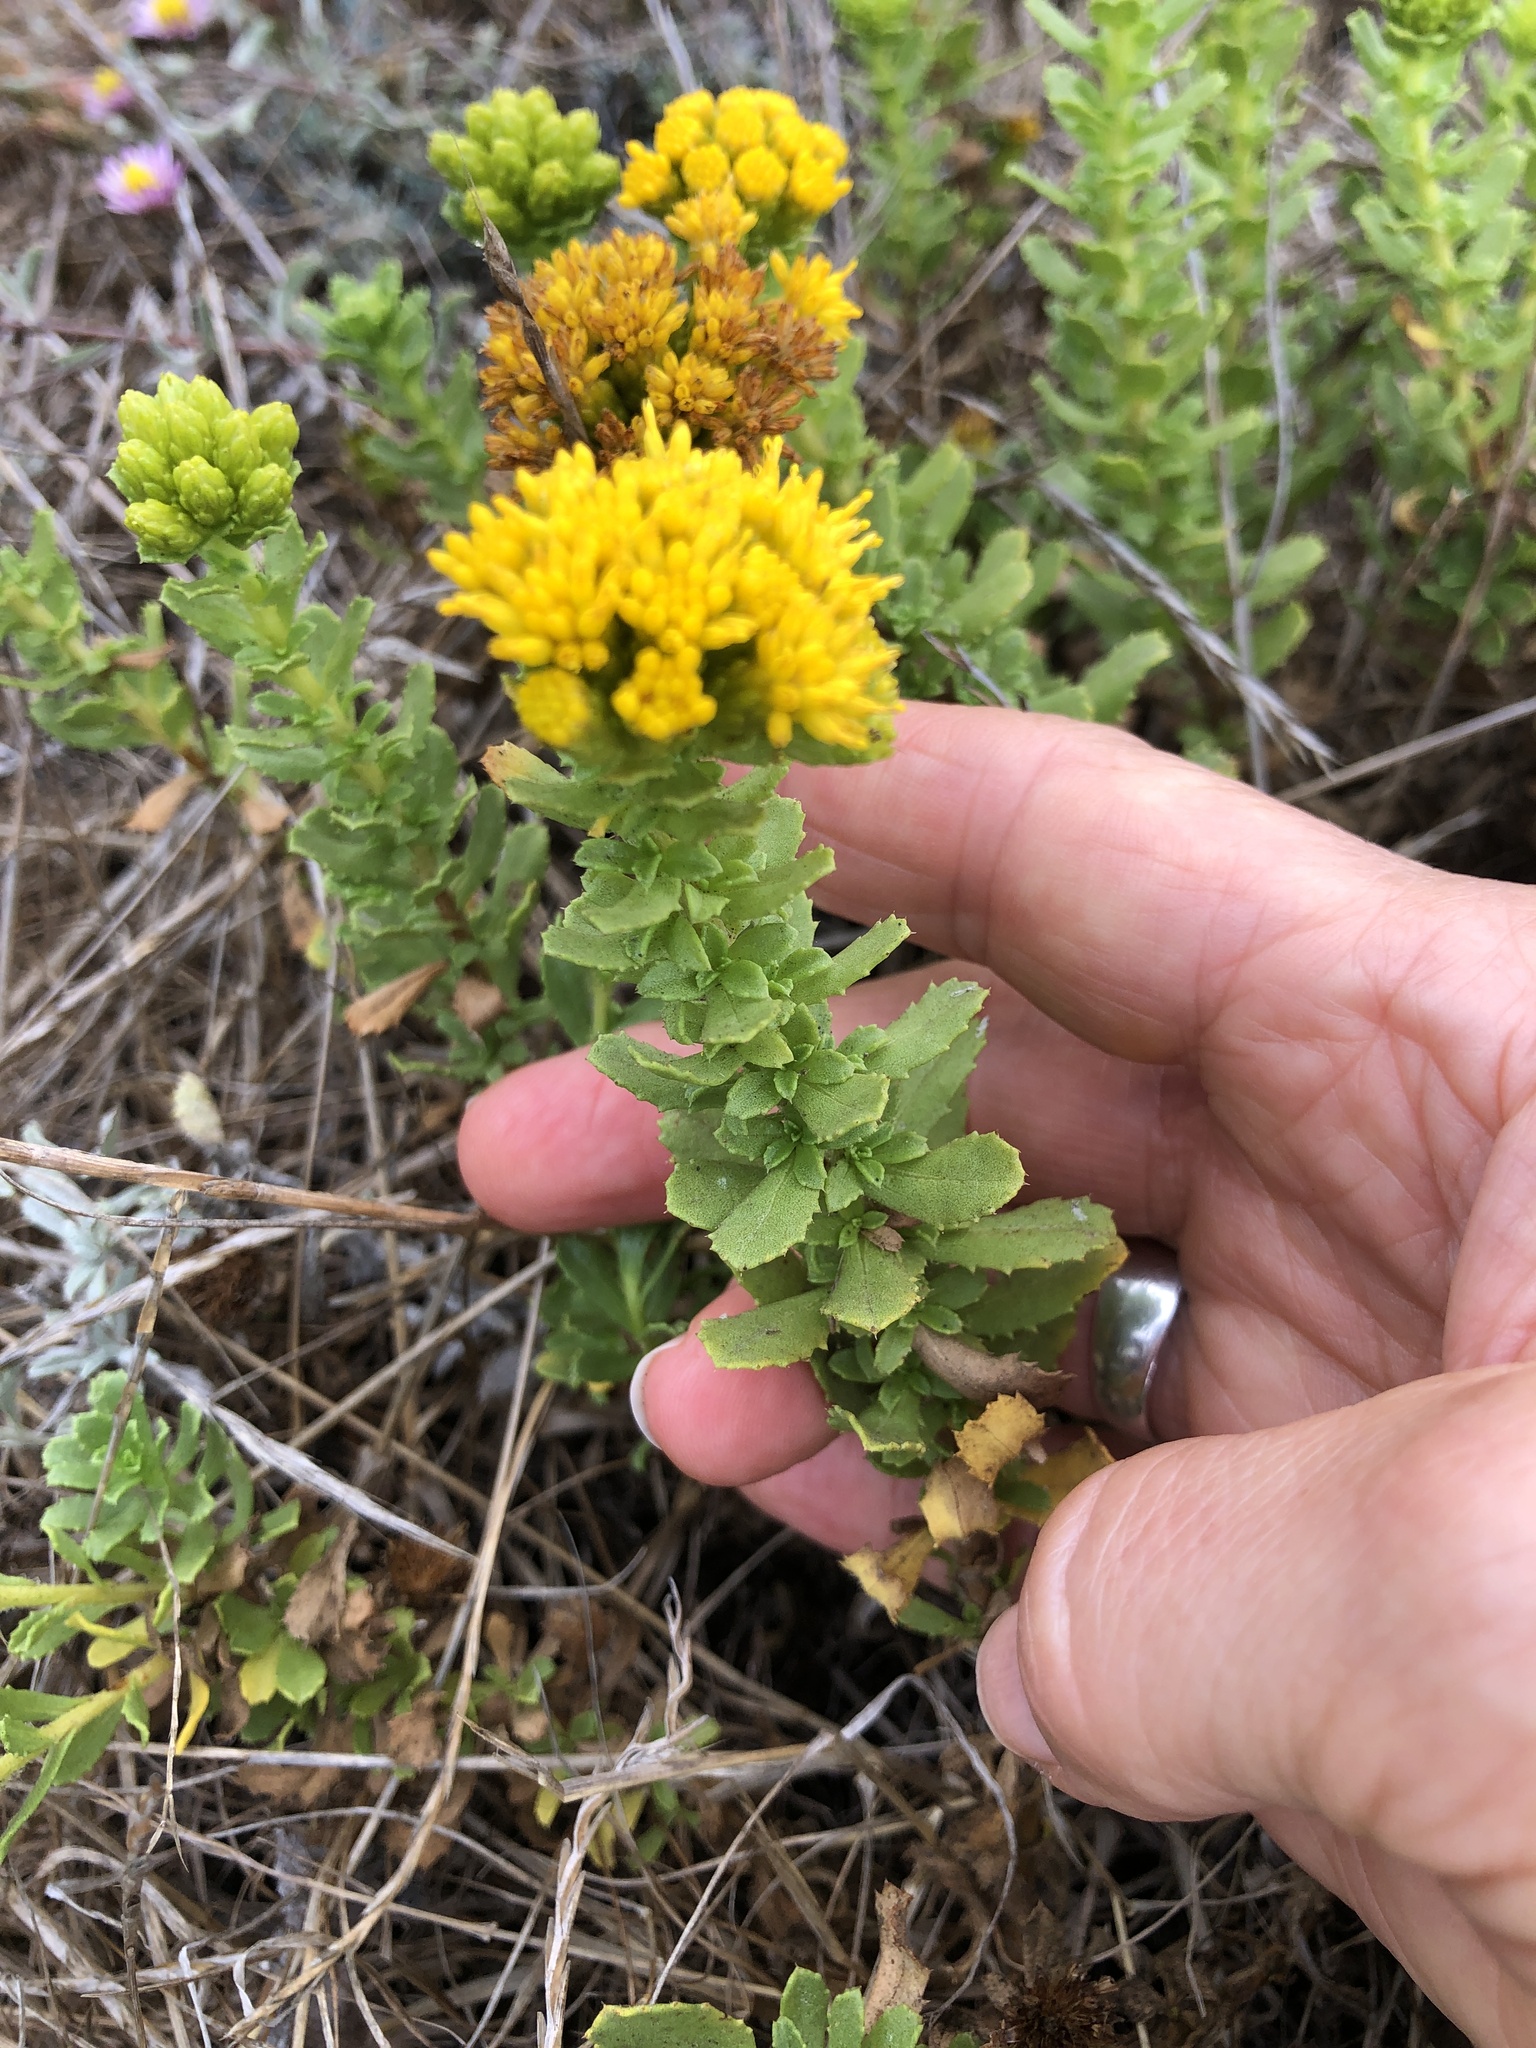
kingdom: Plantae
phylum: Tracheophyta
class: Magnoliopsida
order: Asterales
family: Asteraceae
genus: Isocoma
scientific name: Isocoma menziesii
